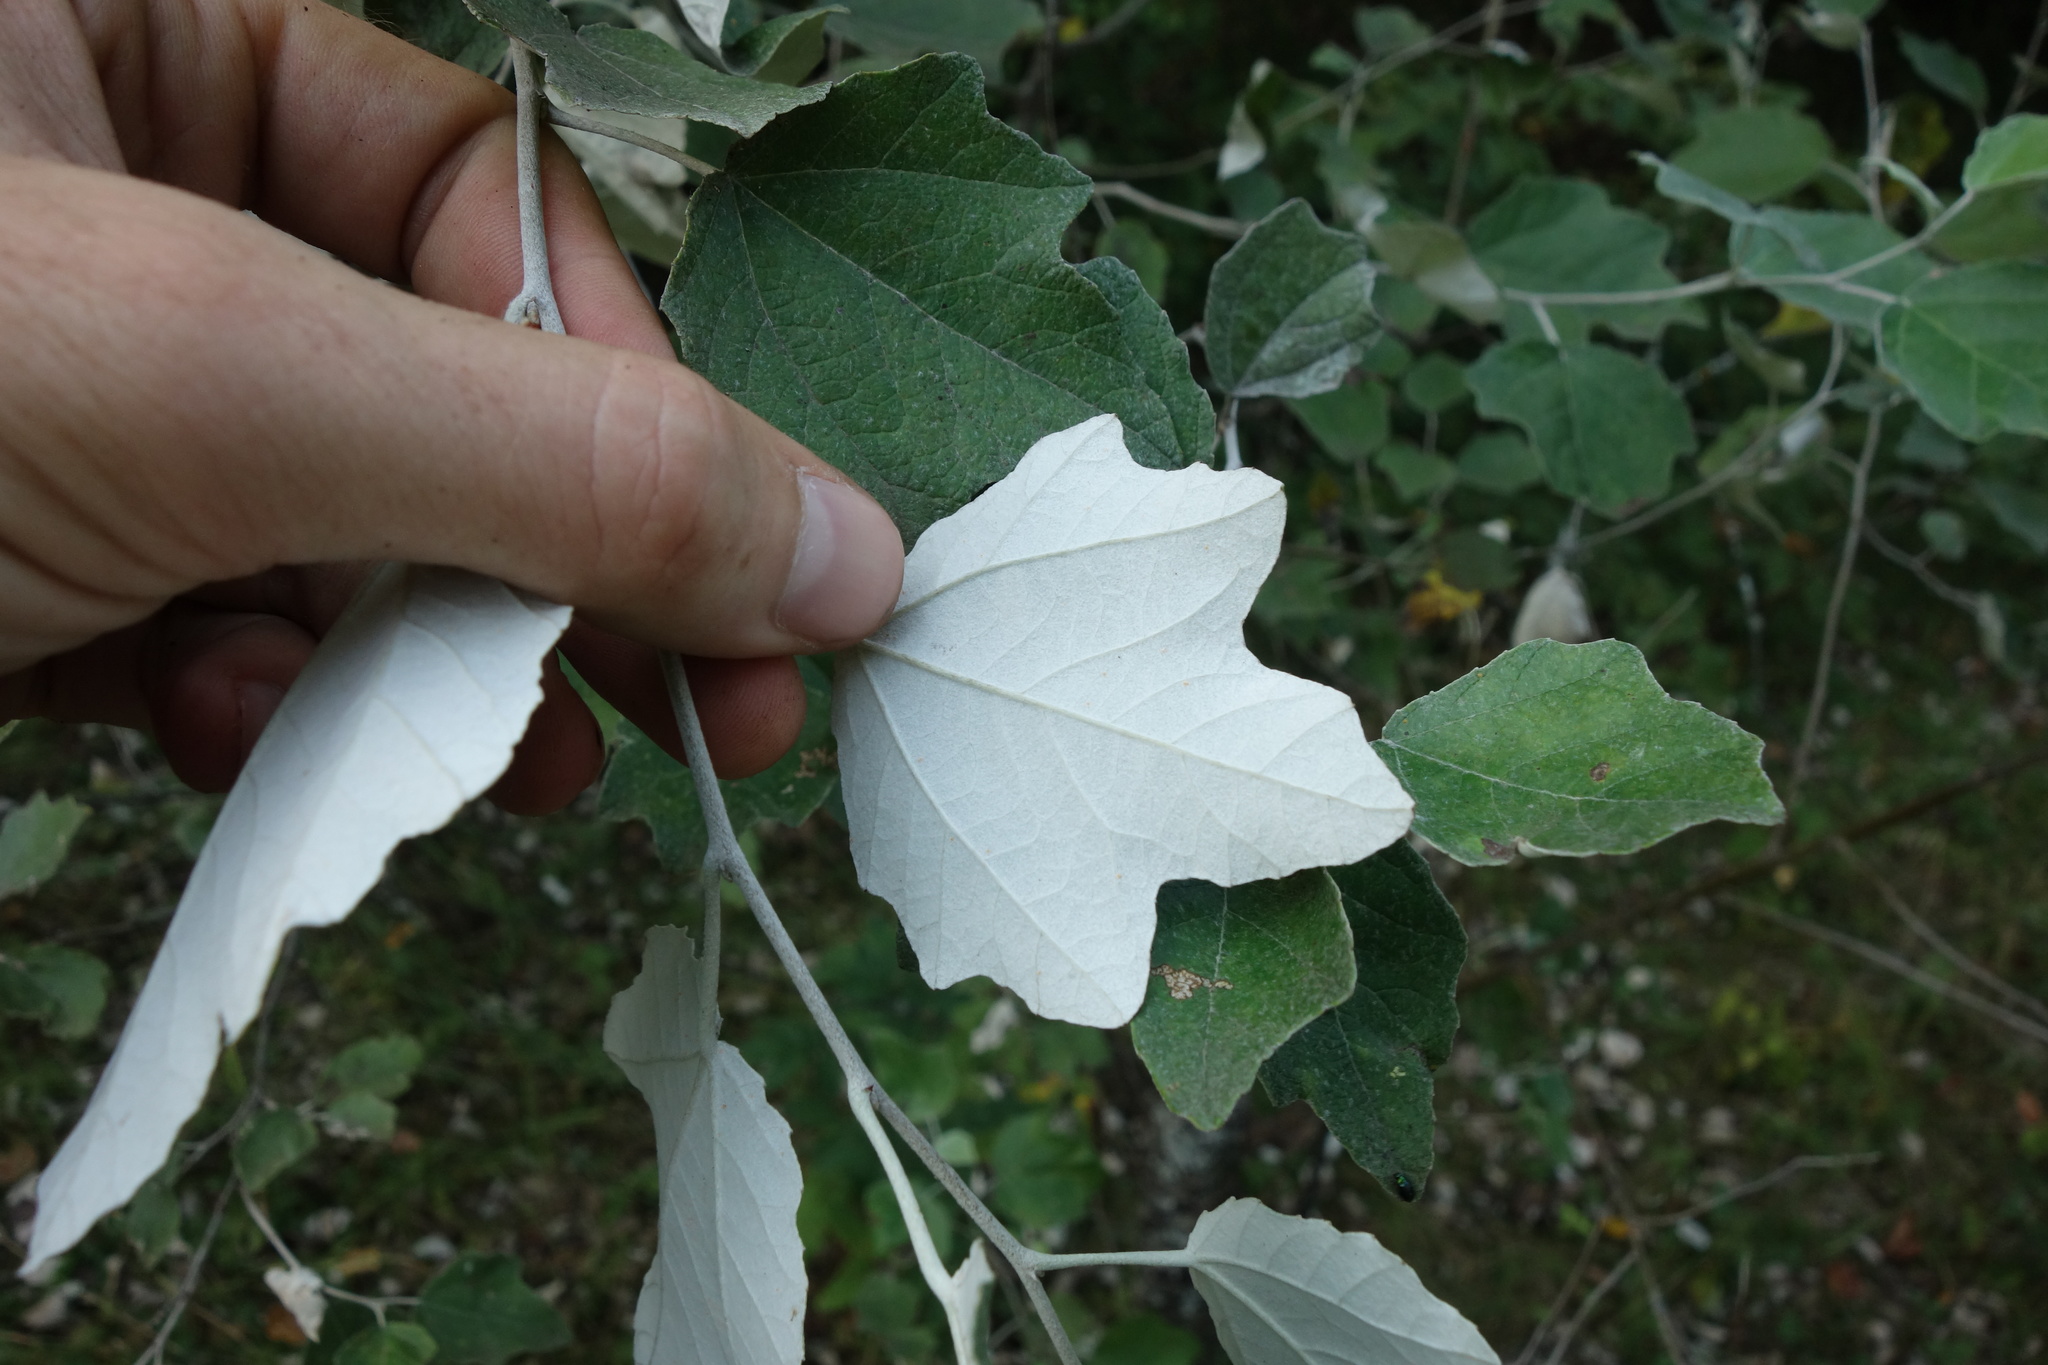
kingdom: Plantae
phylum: Tracheophyta
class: Magnoliopsida
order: Malpighiales
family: Salicaceae
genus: Populus
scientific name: Populus alba
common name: White poplar
